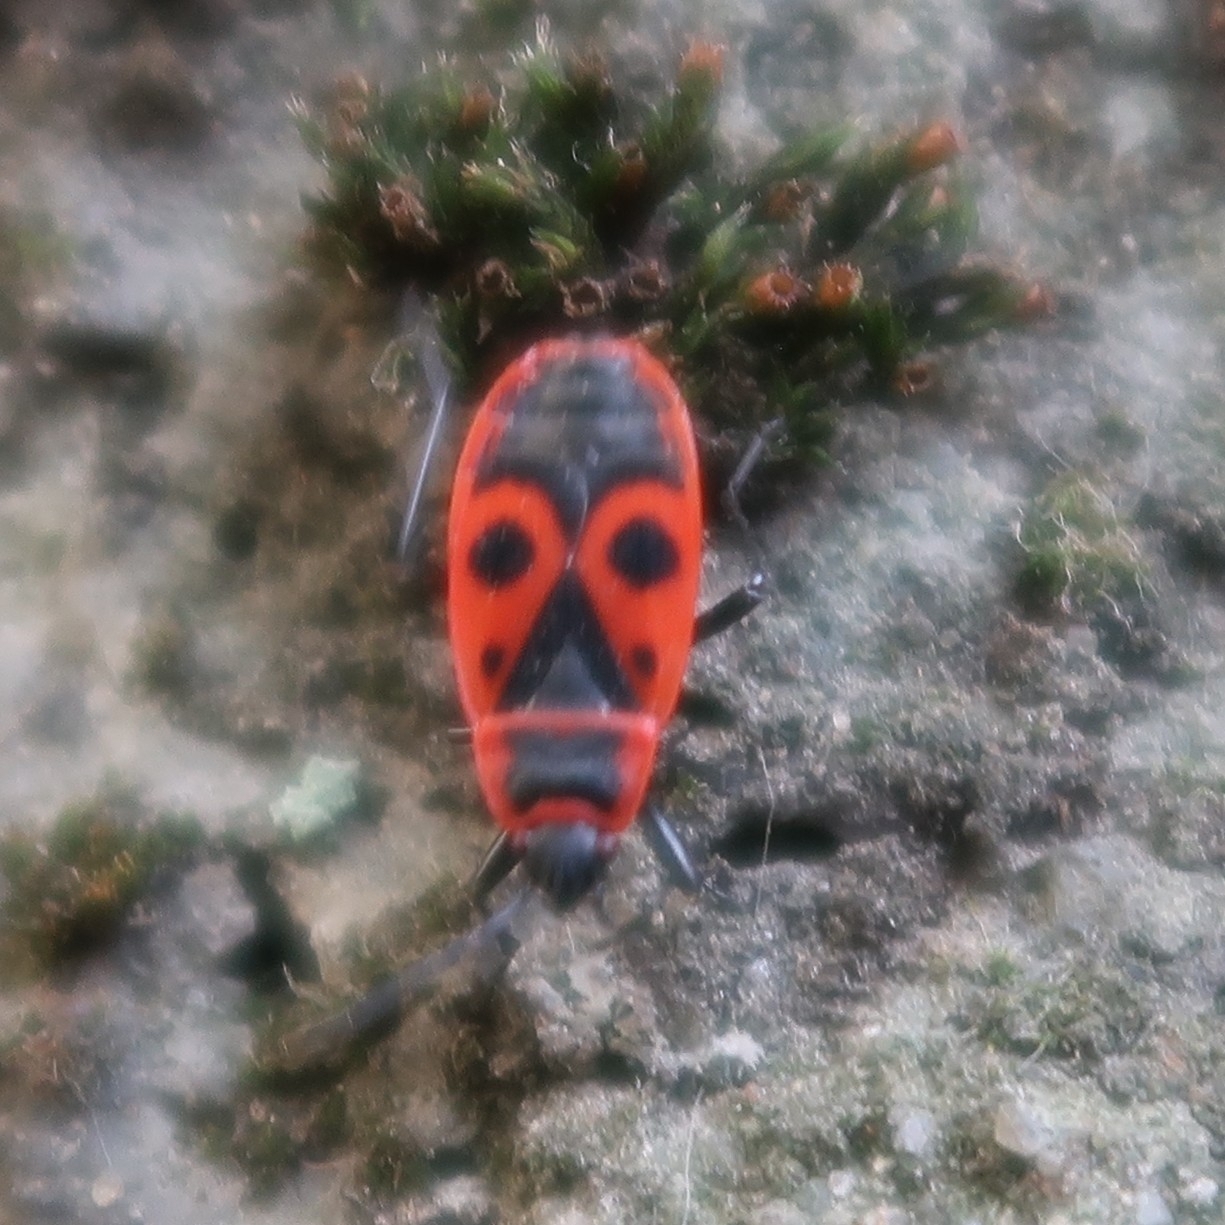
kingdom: Animalia
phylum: Arthropoda
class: Insecta
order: Hemiptera
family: Pyrrhocoridae
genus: Pyrrhocoris
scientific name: Pyrrhocoris apterus
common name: Firebug
